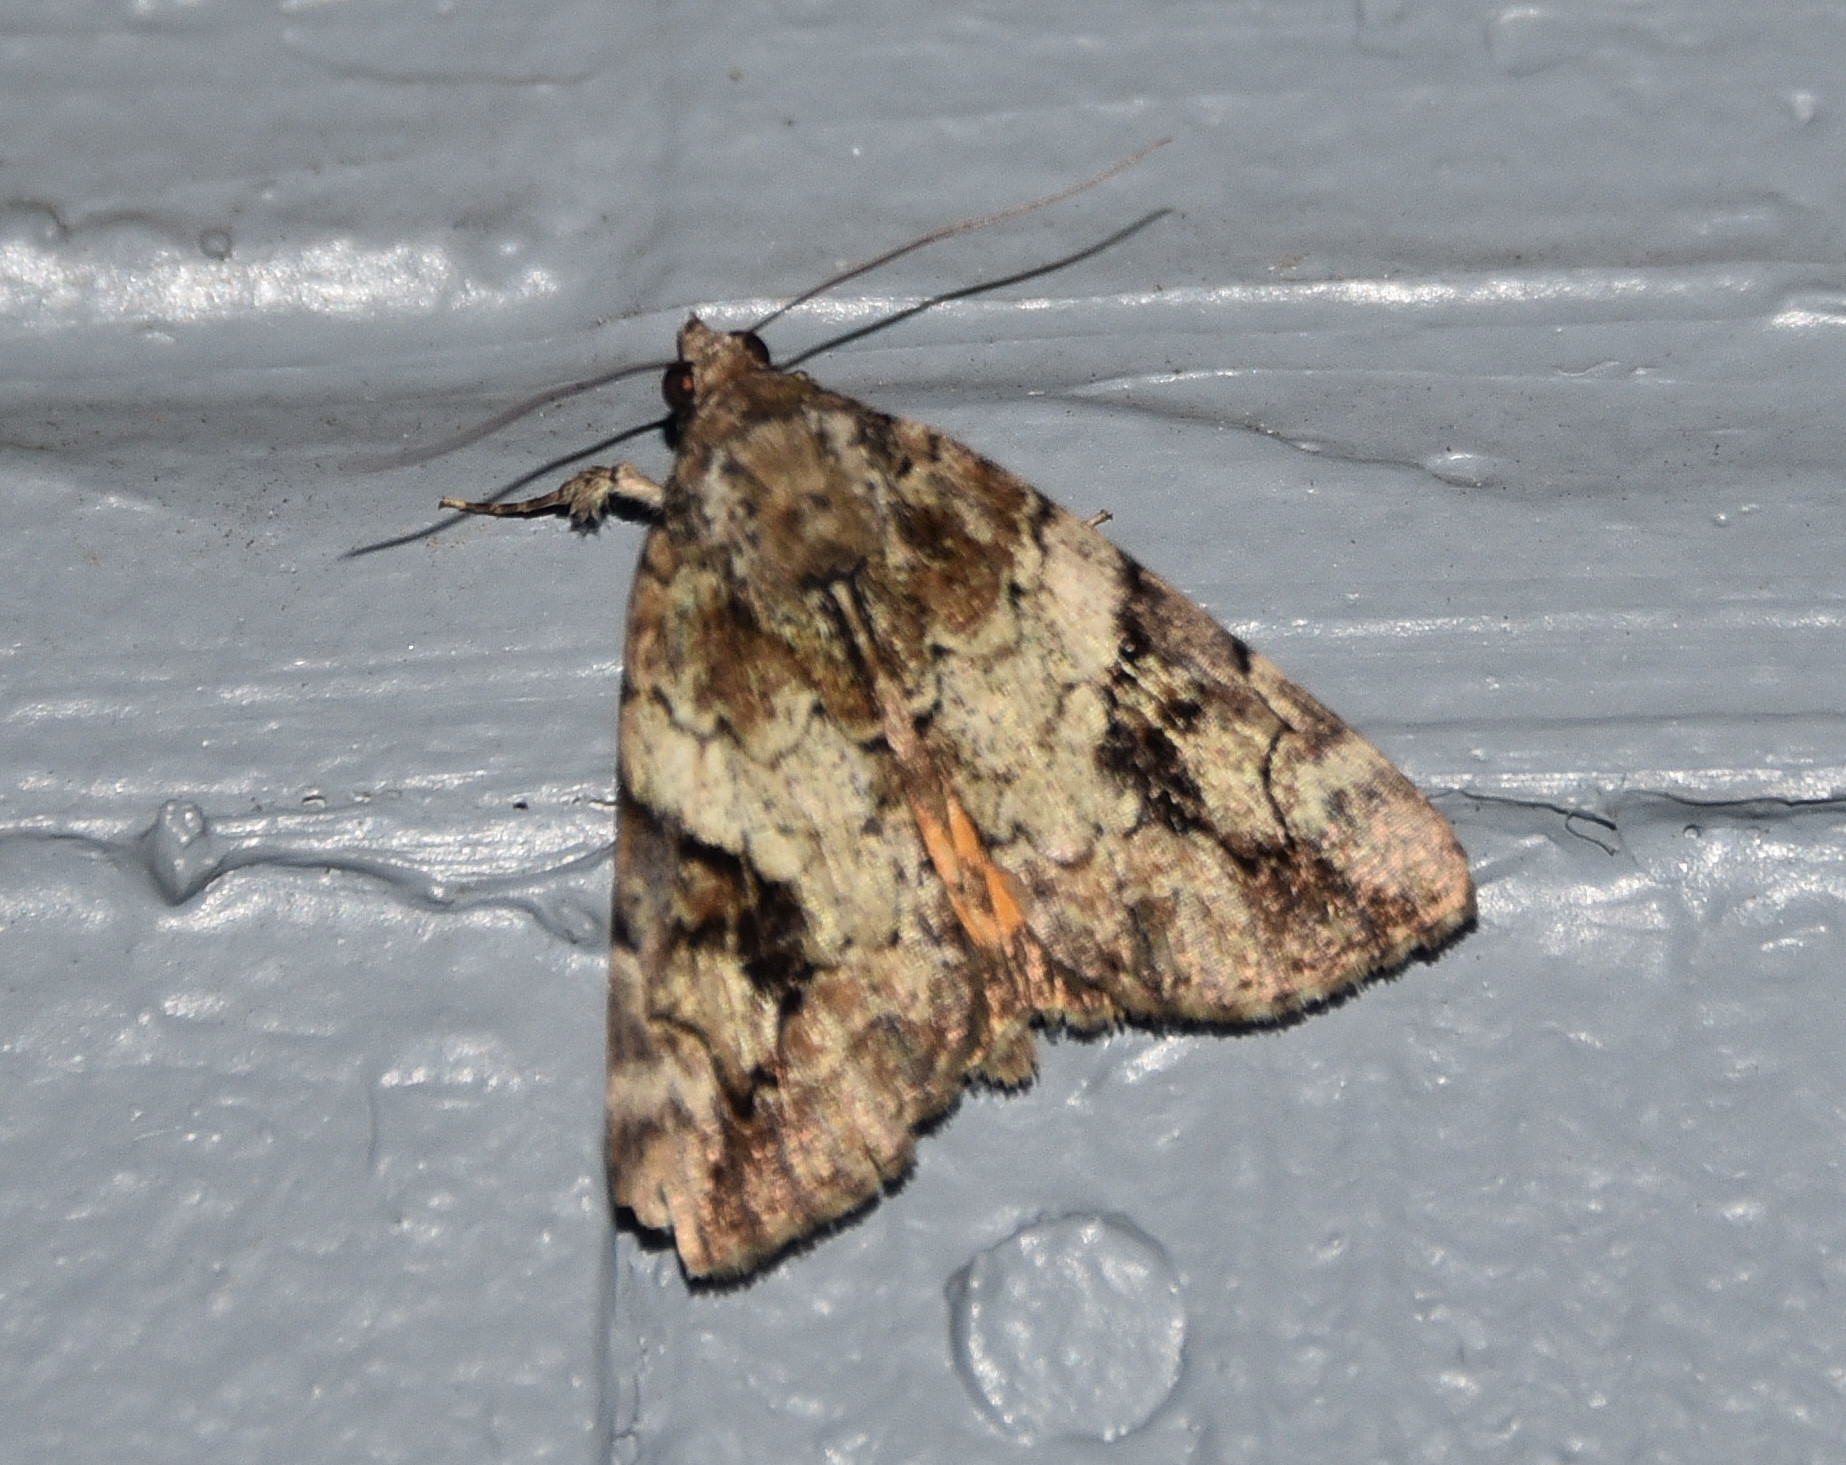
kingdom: Animalia
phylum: Arthropoda
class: Insecta
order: Lepidoptera
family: Erebidae
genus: Catocala
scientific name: Catocala micronympha
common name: Little nymph underwing
